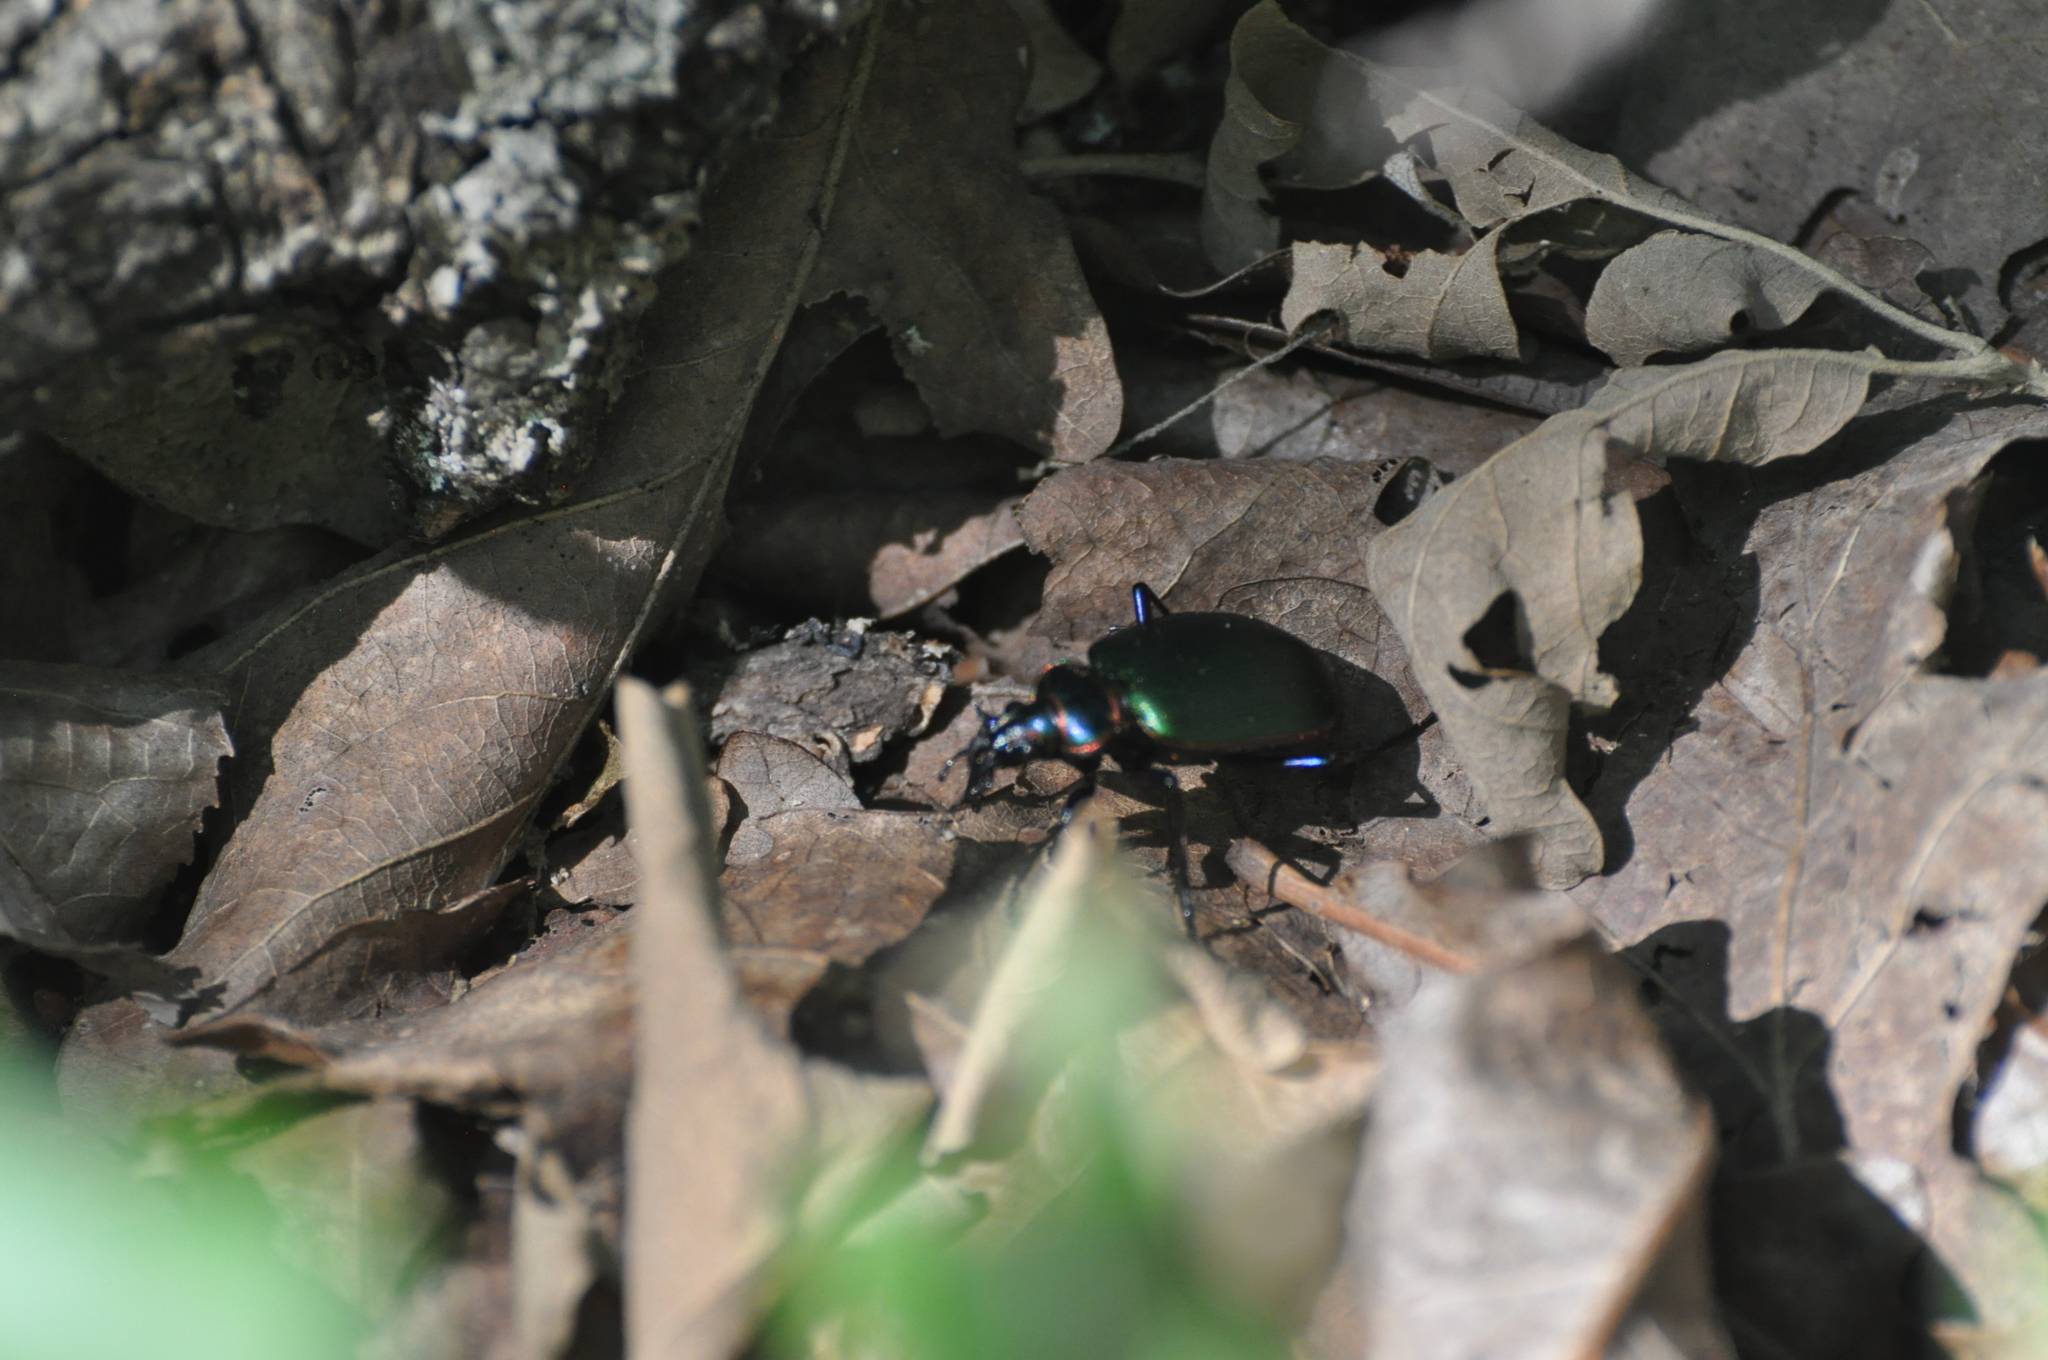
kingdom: Animalia
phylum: Arthropoda
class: Insecta
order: Coleoptera
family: Carabidae
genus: Calosoma
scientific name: Calosoma scrutator
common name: Fiery searcher beetle
